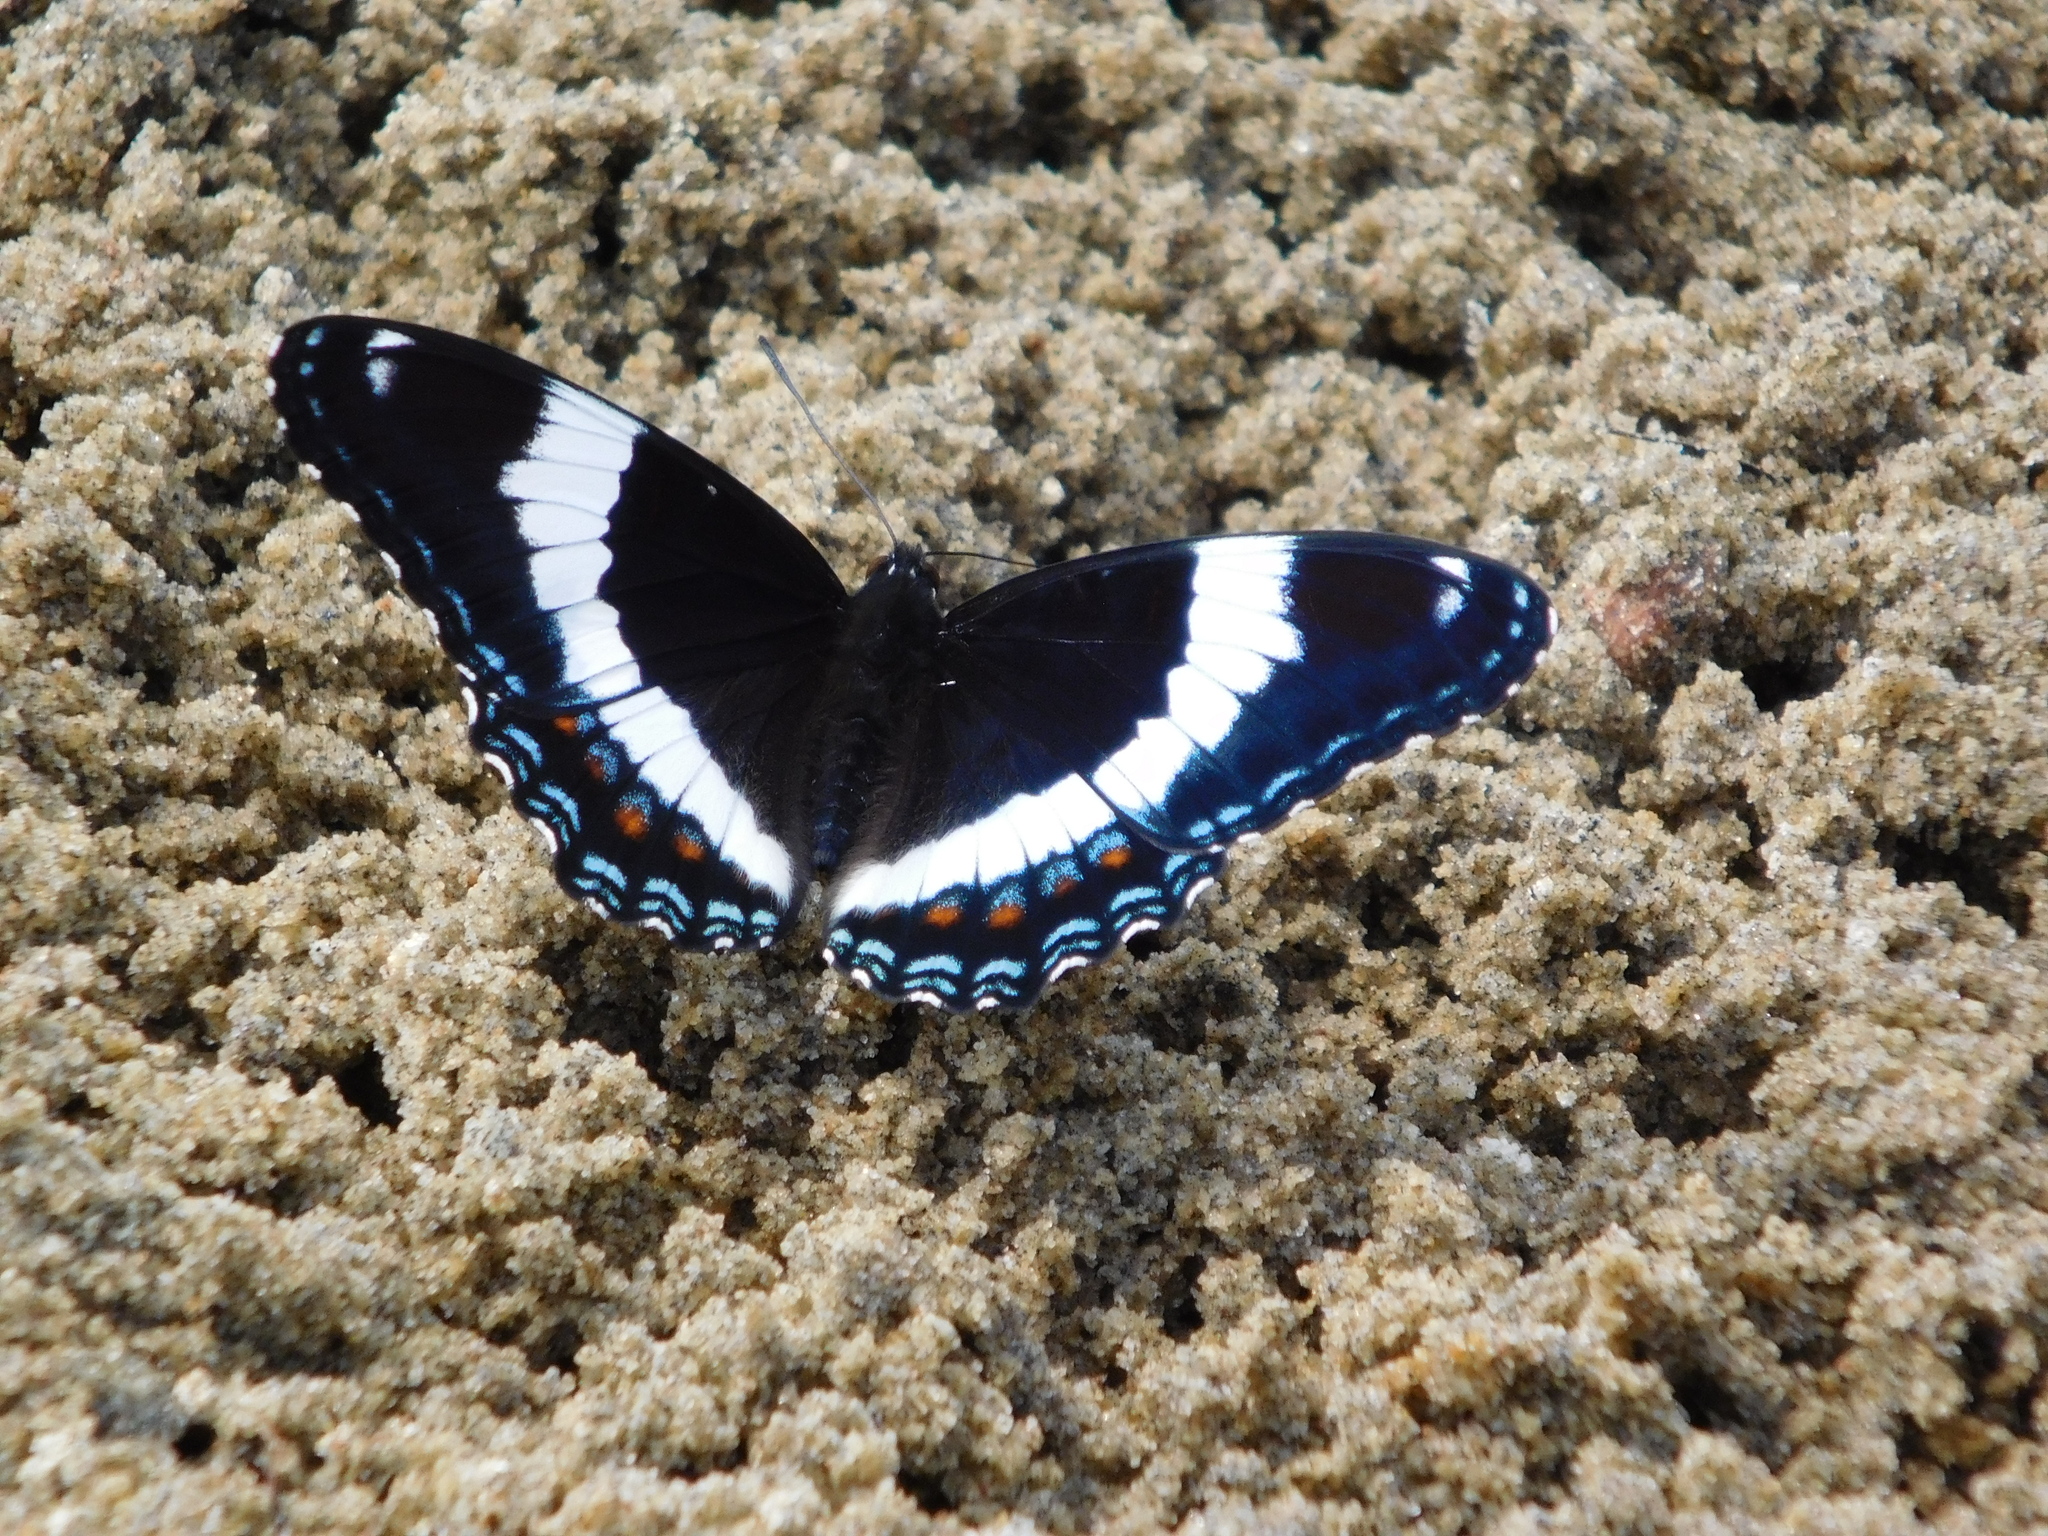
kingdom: Animalia
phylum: Arthropoda
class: Insecta
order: Lepidoptera
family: Nymphalidae
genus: Limenitis
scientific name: Limenitis arthemis
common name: Red-spotted admiral
